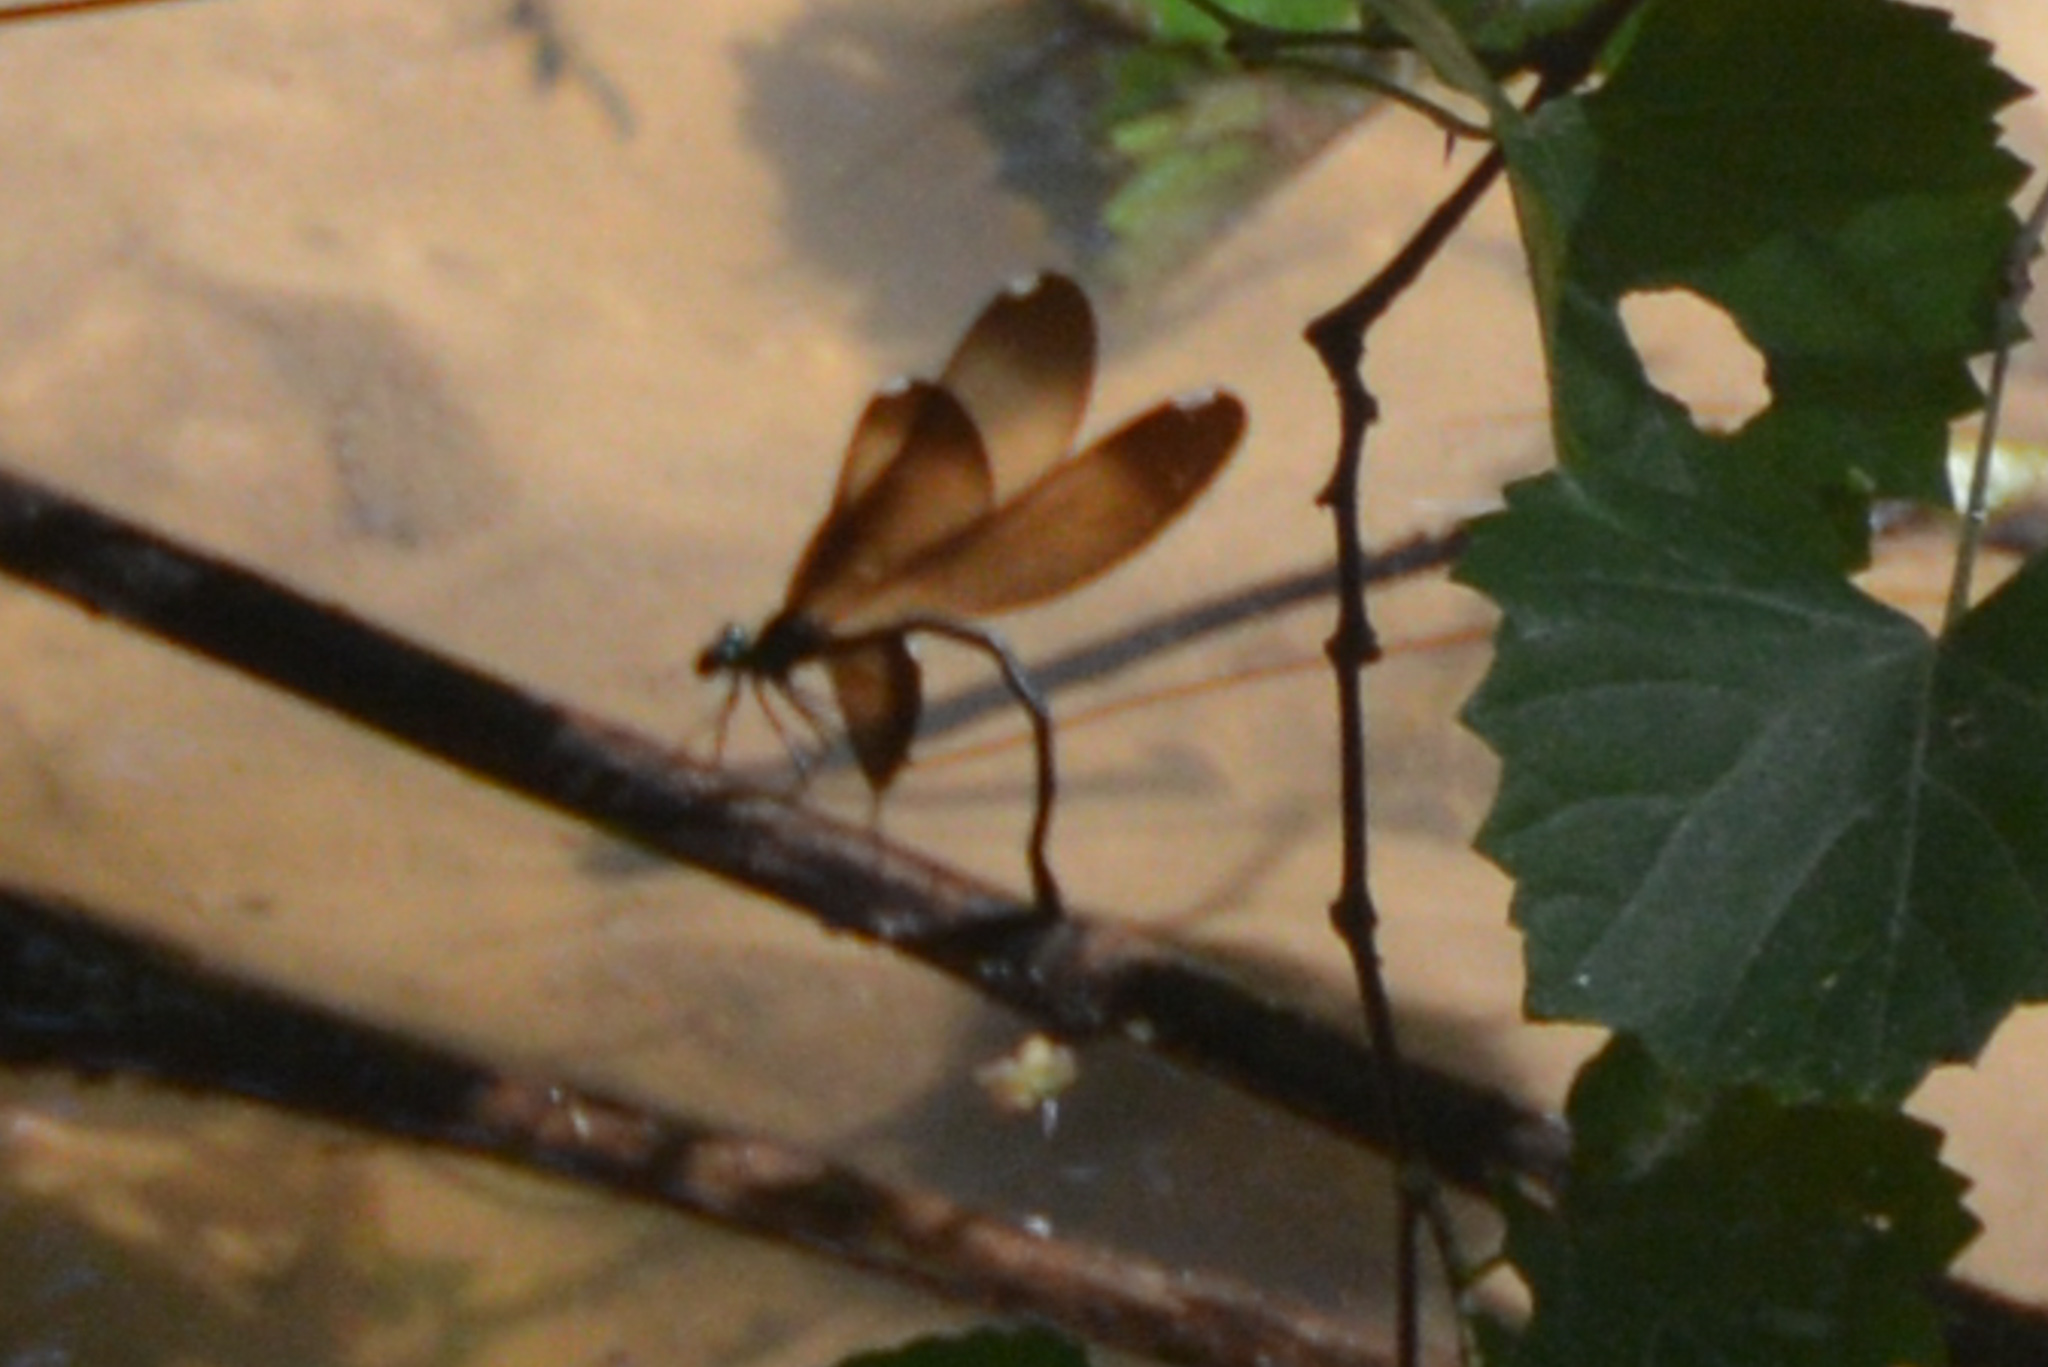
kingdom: Animalia
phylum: Arthropoda
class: Insecta
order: Odonata
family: Calopterygidae
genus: Calopteryx
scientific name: Calopteryx maculata
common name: Ebony jewelwing
